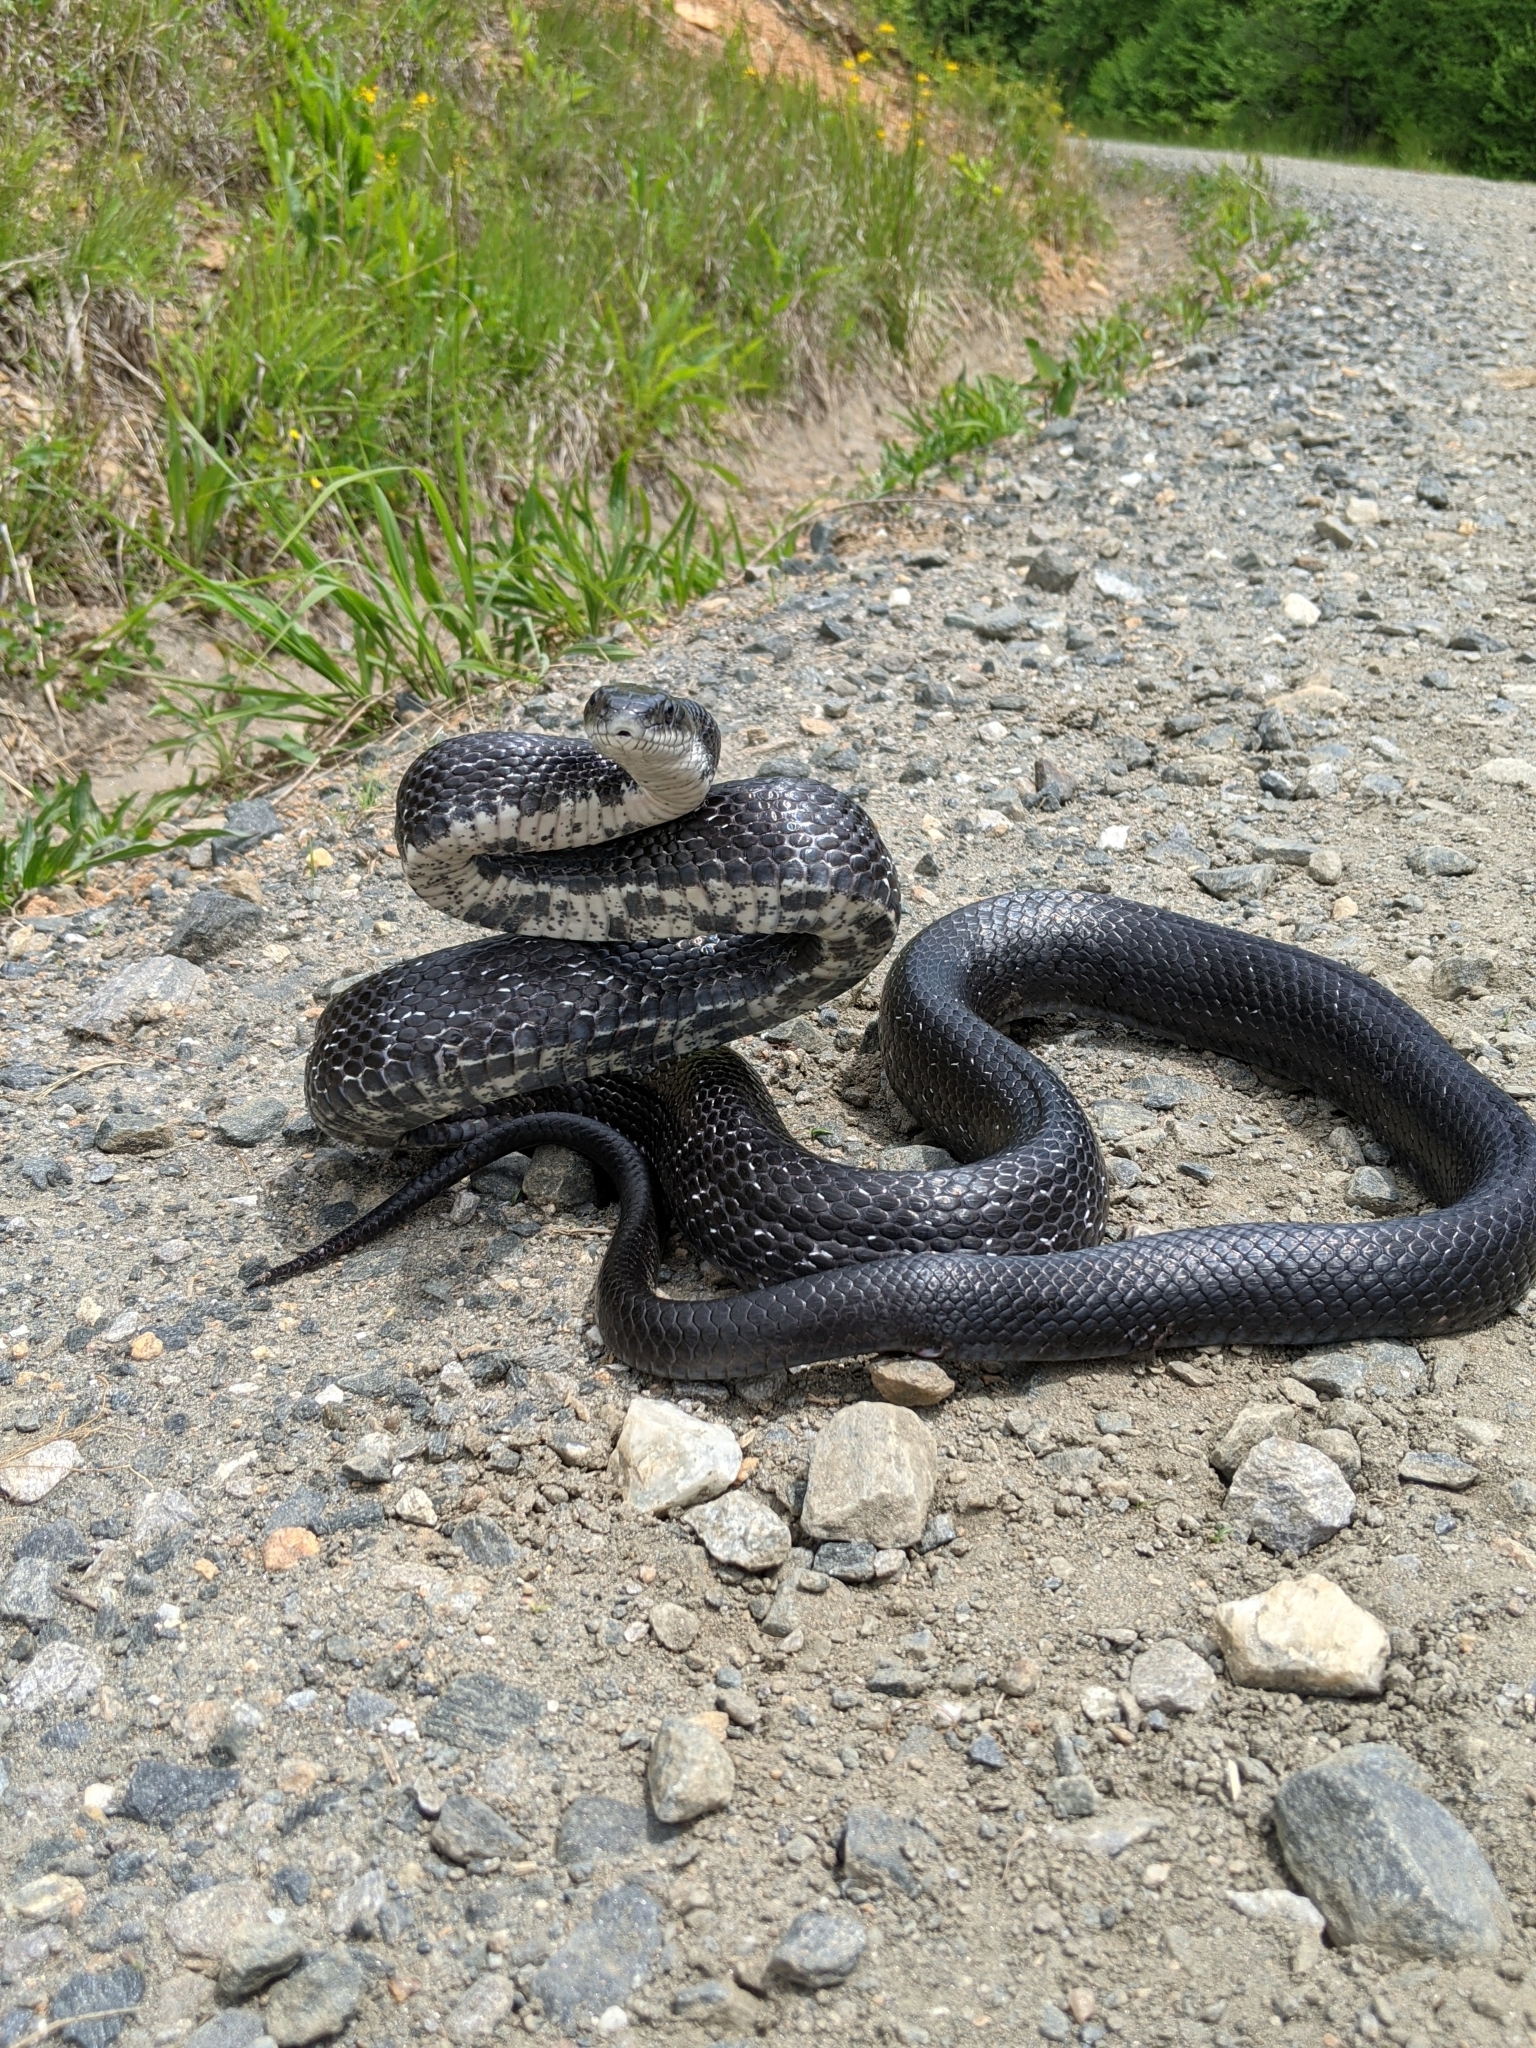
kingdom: Animalia
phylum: Chordata
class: Squamata
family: Colubridae
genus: Pantherophis
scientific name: Pantherophis alleghaniensis
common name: Eastern rat snake
